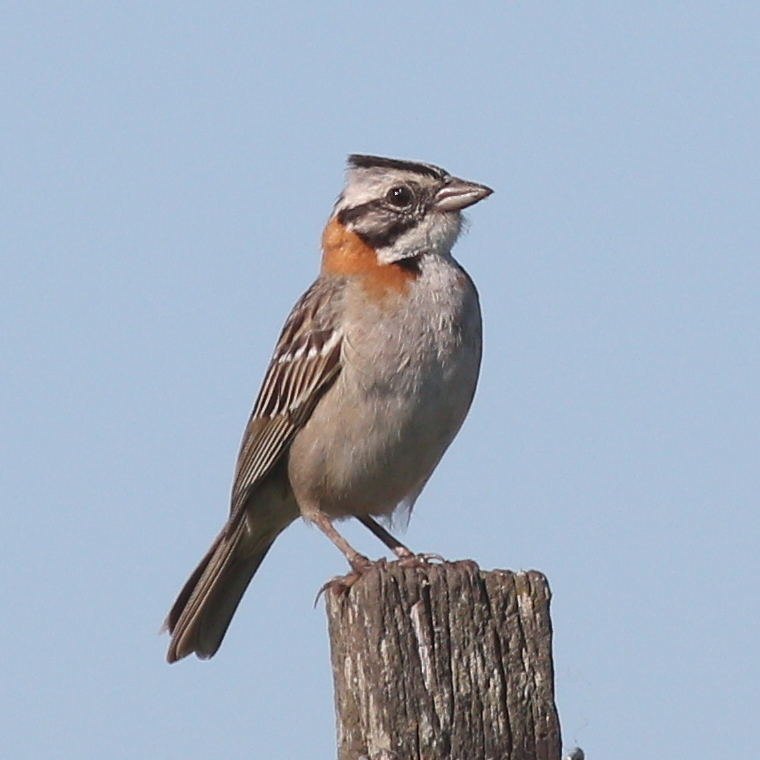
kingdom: Animalia
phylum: Chordata
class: Aves
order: Passeriformes
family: Passerellidae
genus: Zonotrichia
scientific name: Zonotrichia capensis
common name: Rufous-collared sparrow
